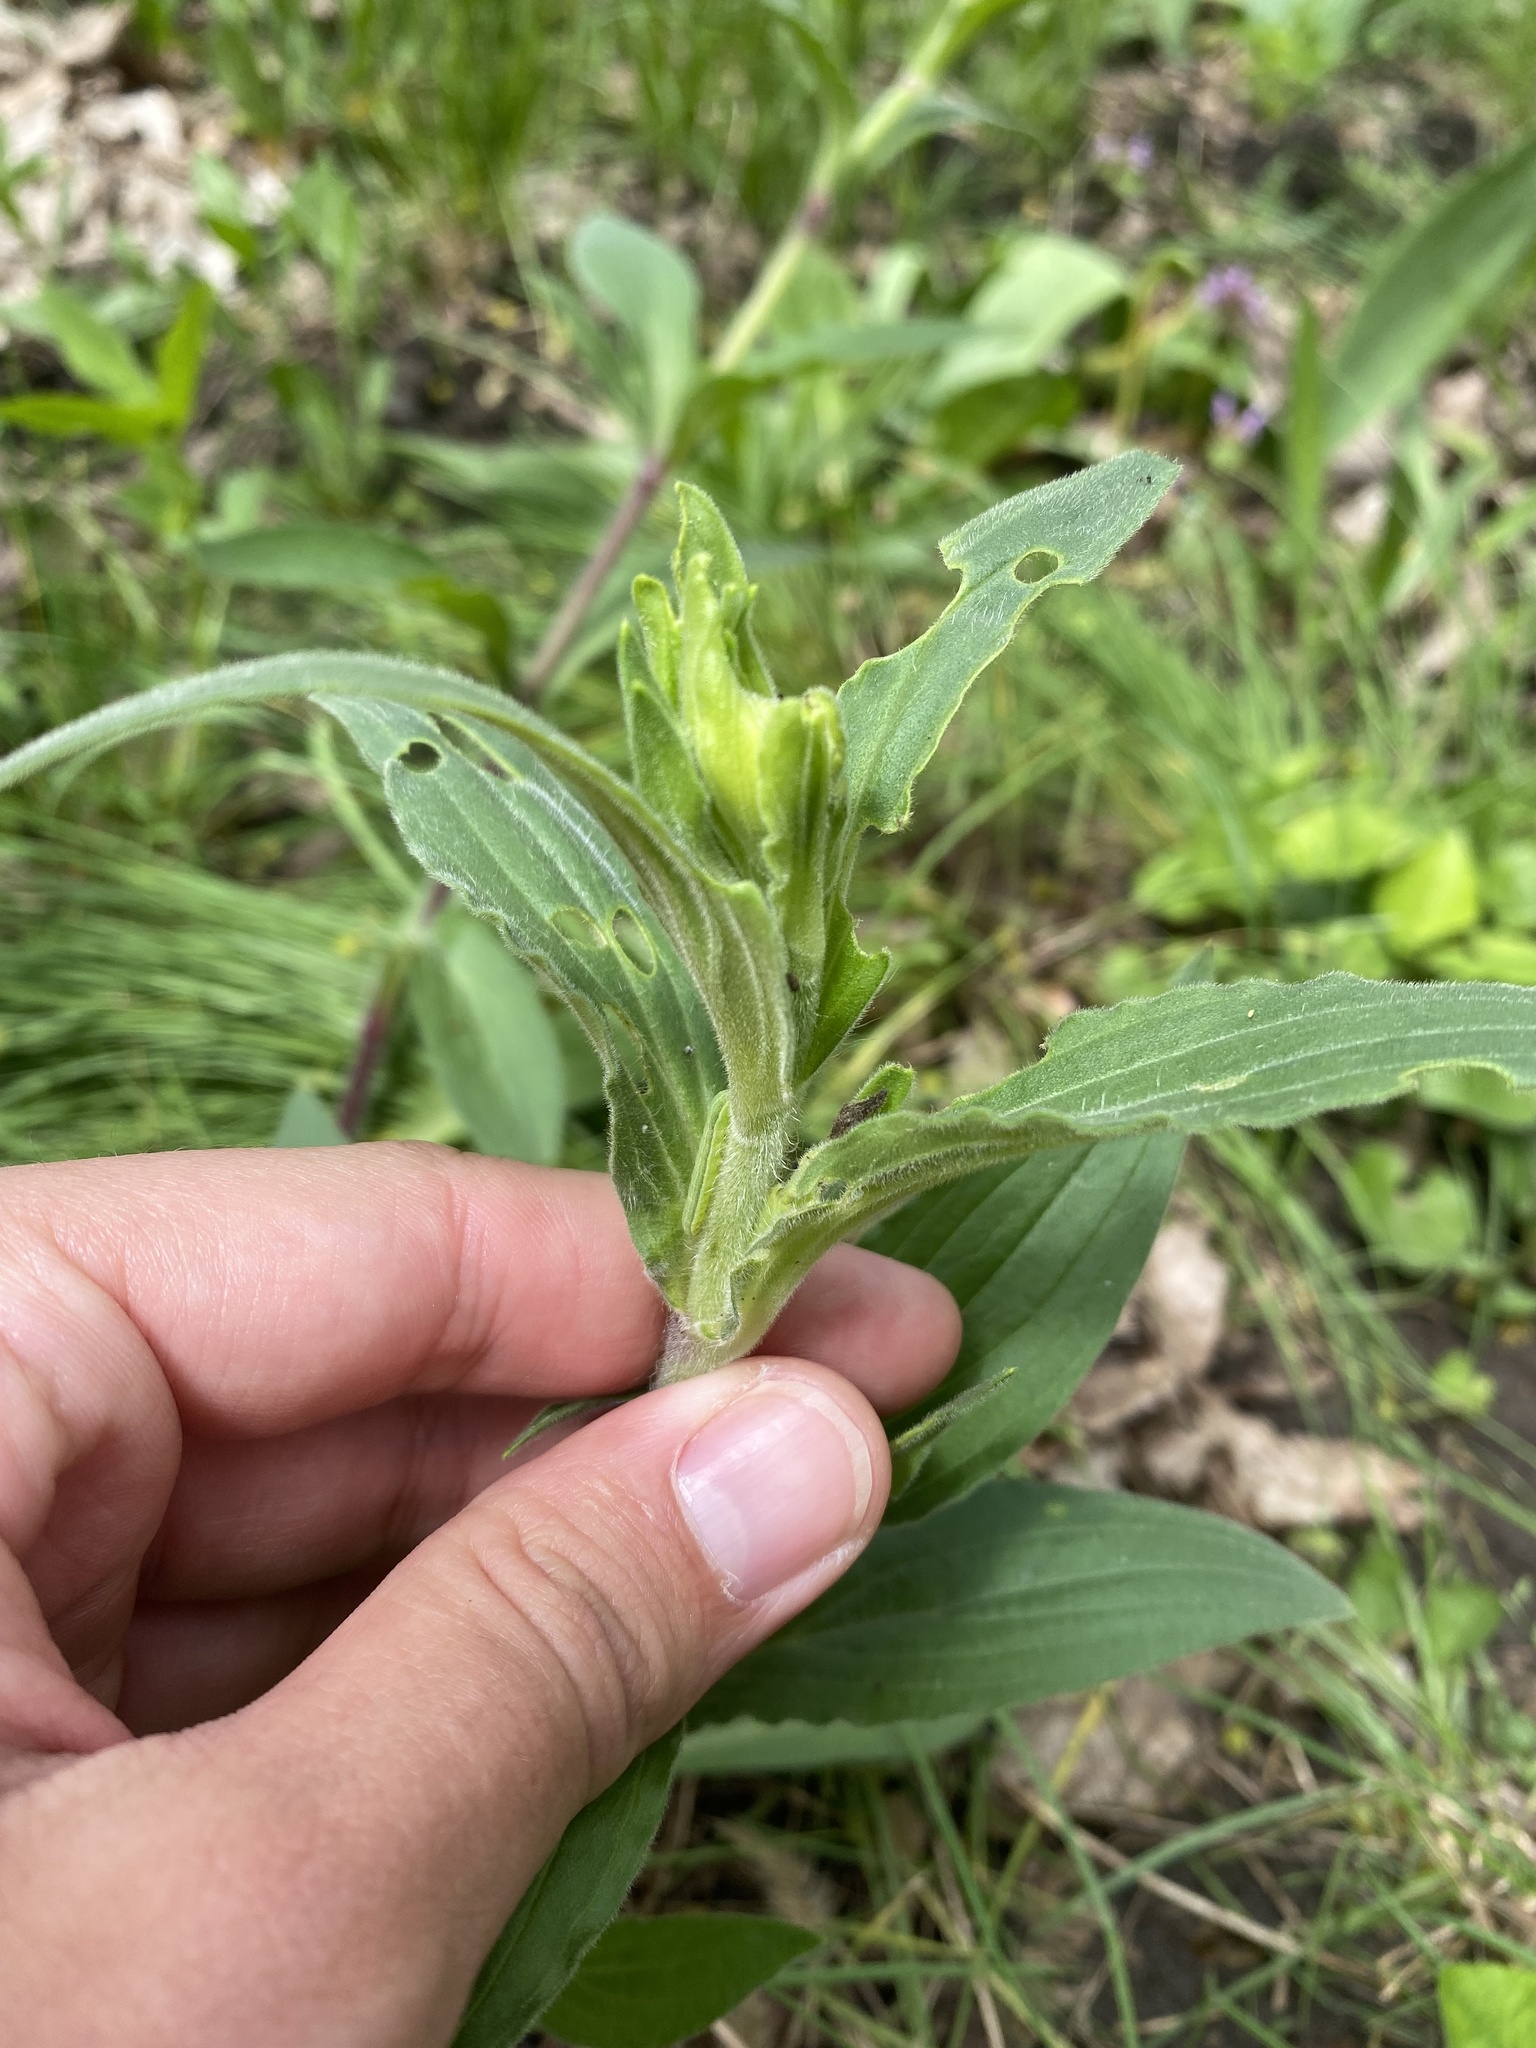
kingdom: Plantae
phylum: Tracheophyta
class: Magnoliopsida
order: Caryophyllales
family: Caryophyllaceae
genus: Silene
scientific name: Silene latifolia
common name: White campion
